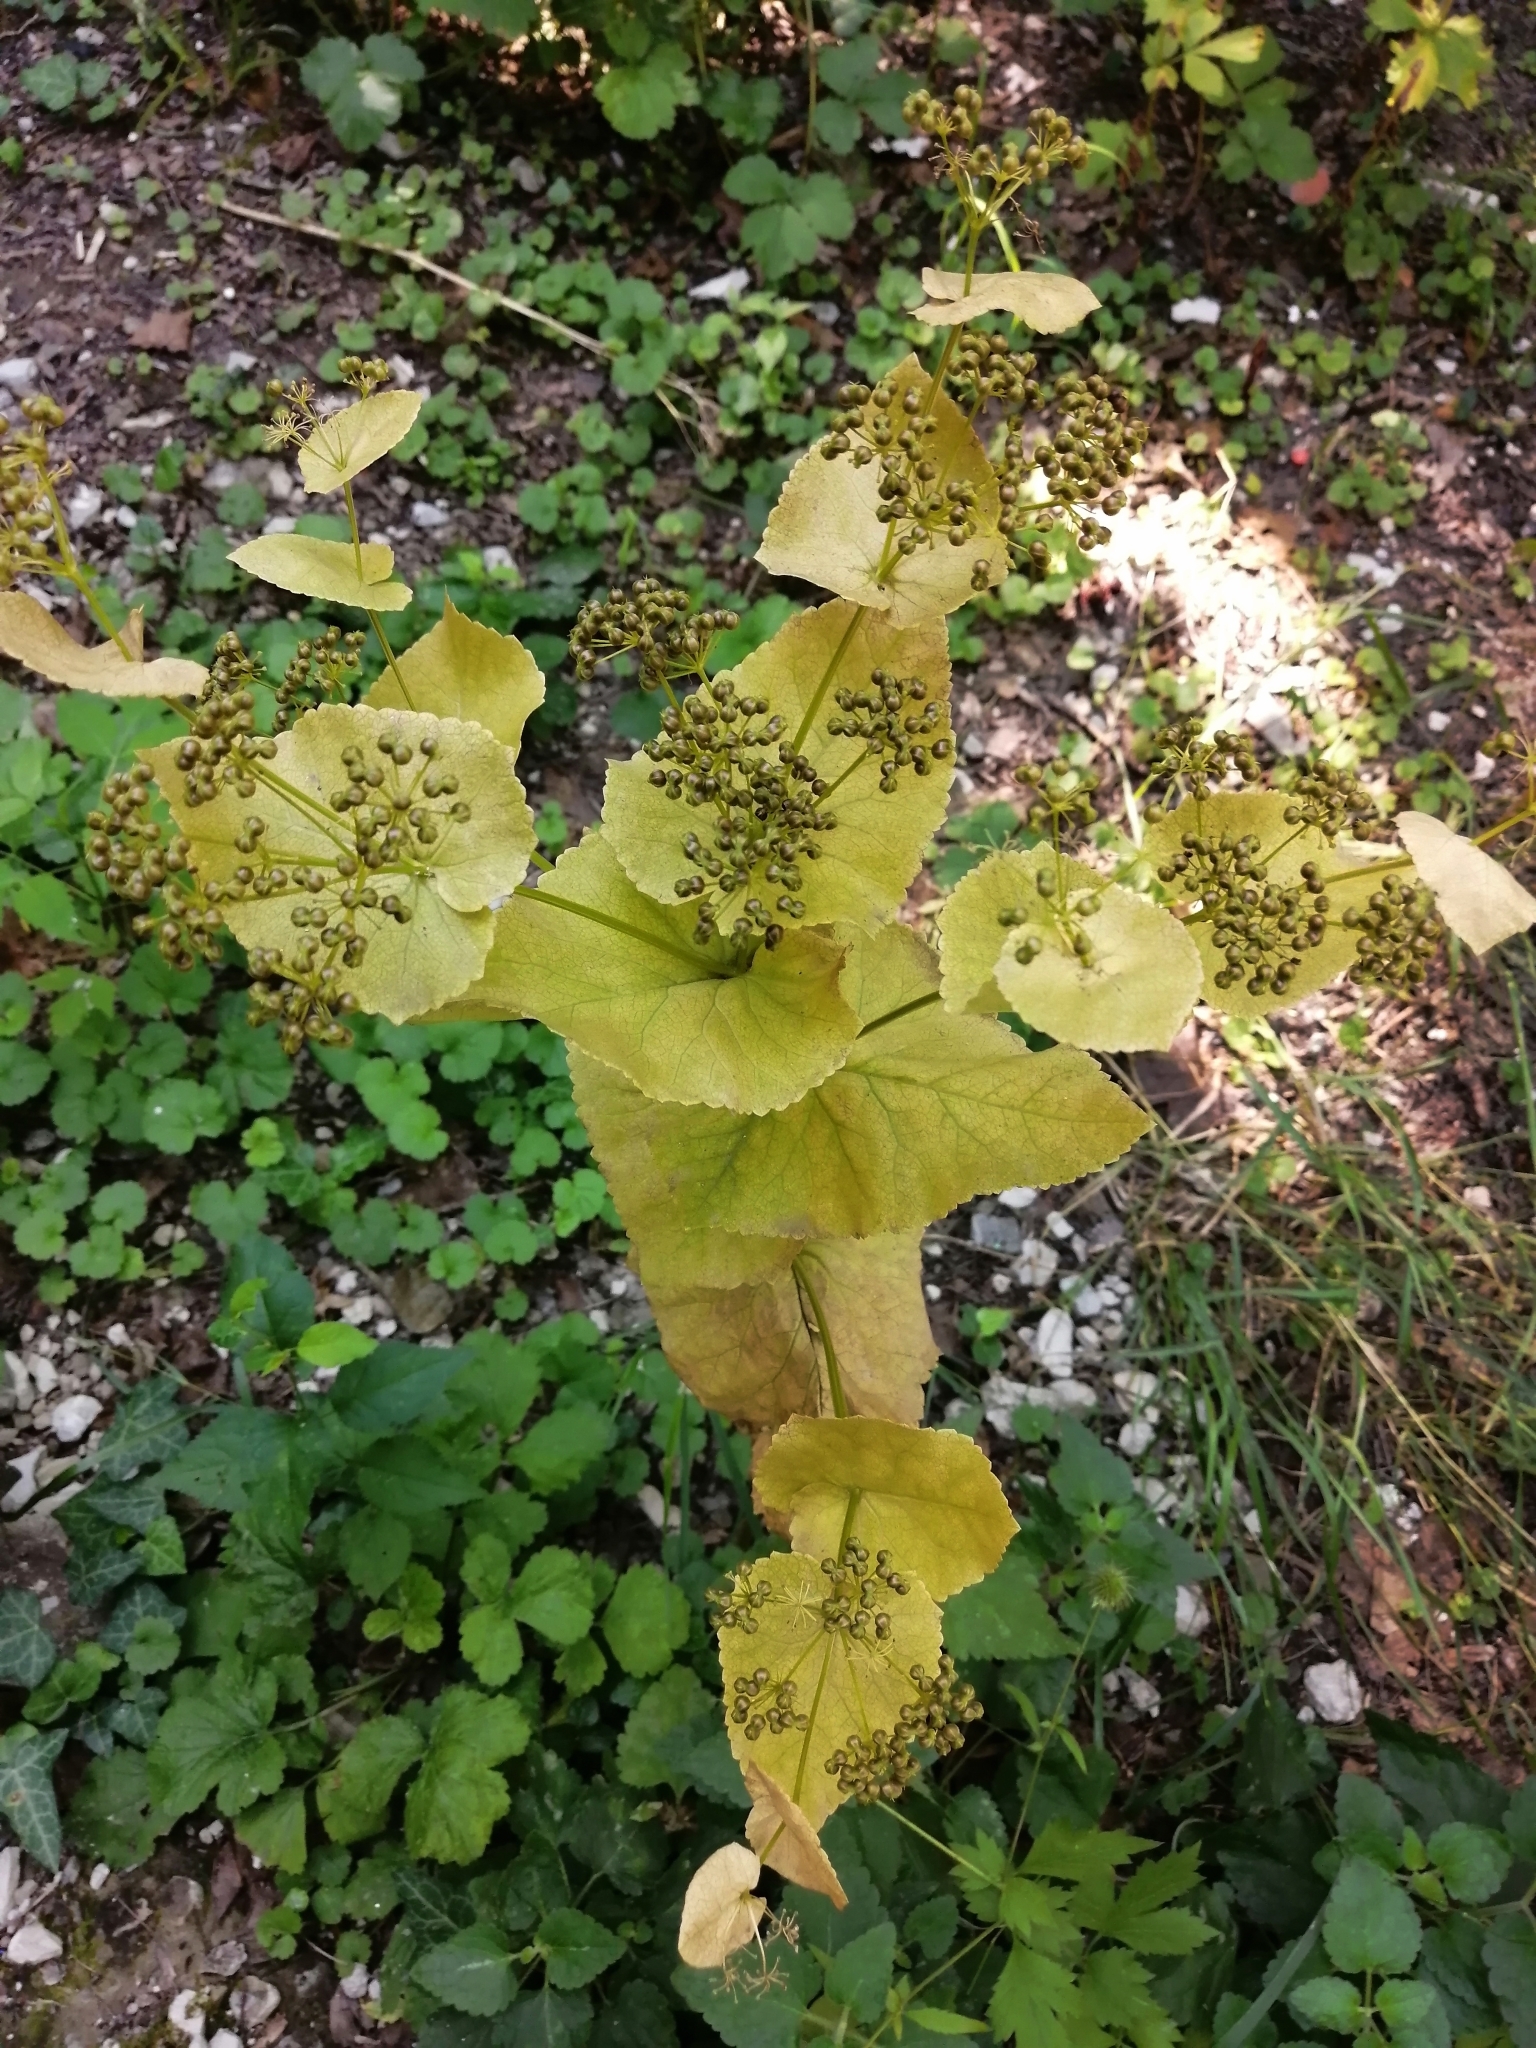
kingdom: Plantae
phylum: Tracheophyta
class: Magnoliopsida
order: Apiales
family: Apiaceae
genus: Smyrnium
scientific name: Smyrnium perfoliatum
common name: Perfoliate alexanders
